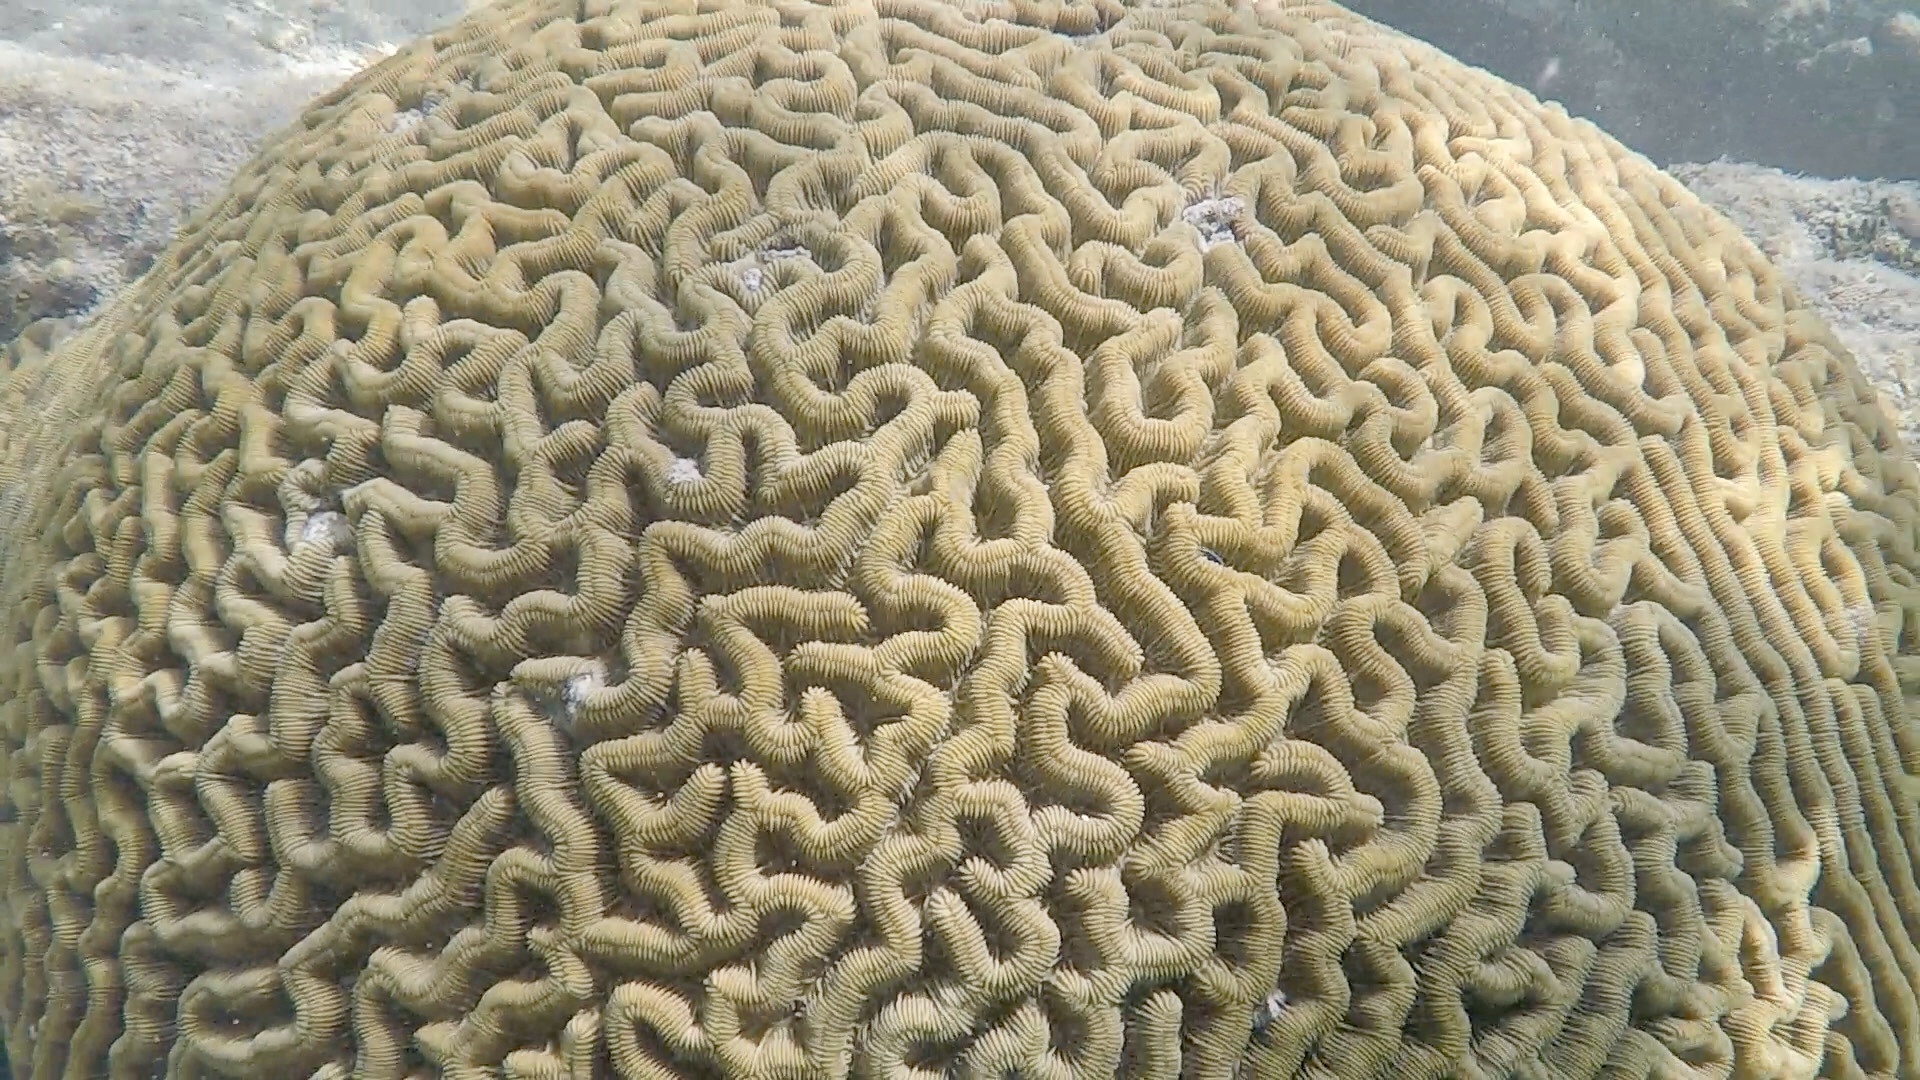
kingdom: Animalia
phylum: Cnidaria
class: Anthozoa
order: Scleractinia
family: Faviidae
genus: Colpophyllia
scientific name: Colpophyllia natans
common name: Boulder brain coral
